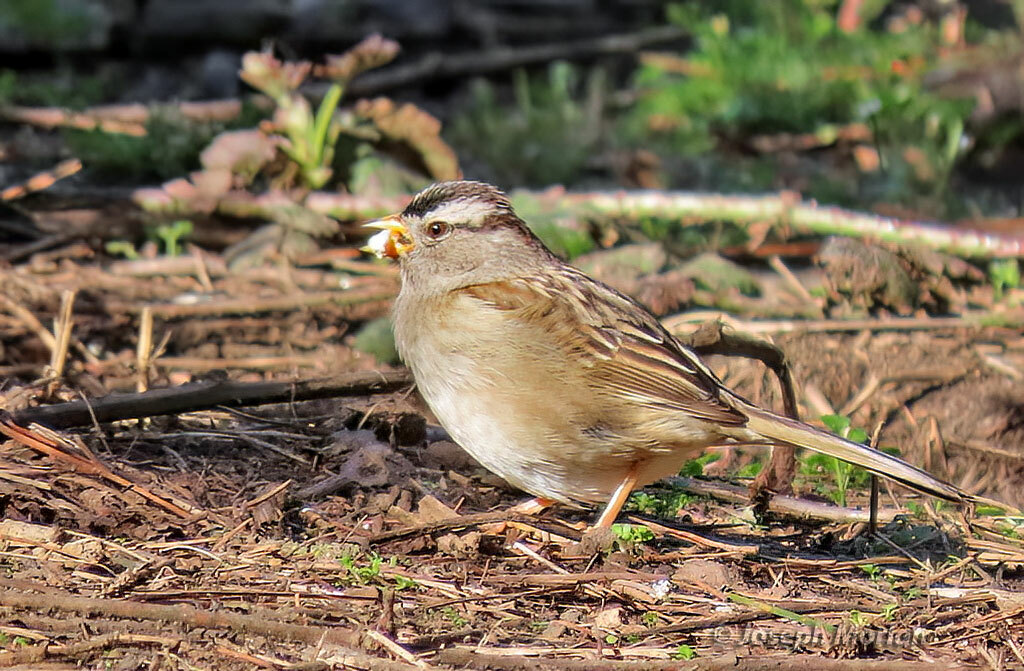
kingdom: Animalia
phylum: Chordata
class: Aves
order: Passeriformes
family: Passerellidae
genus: Zonotrichia
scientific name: Zonotrichia leucophrys
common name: White-crowned sparrow
